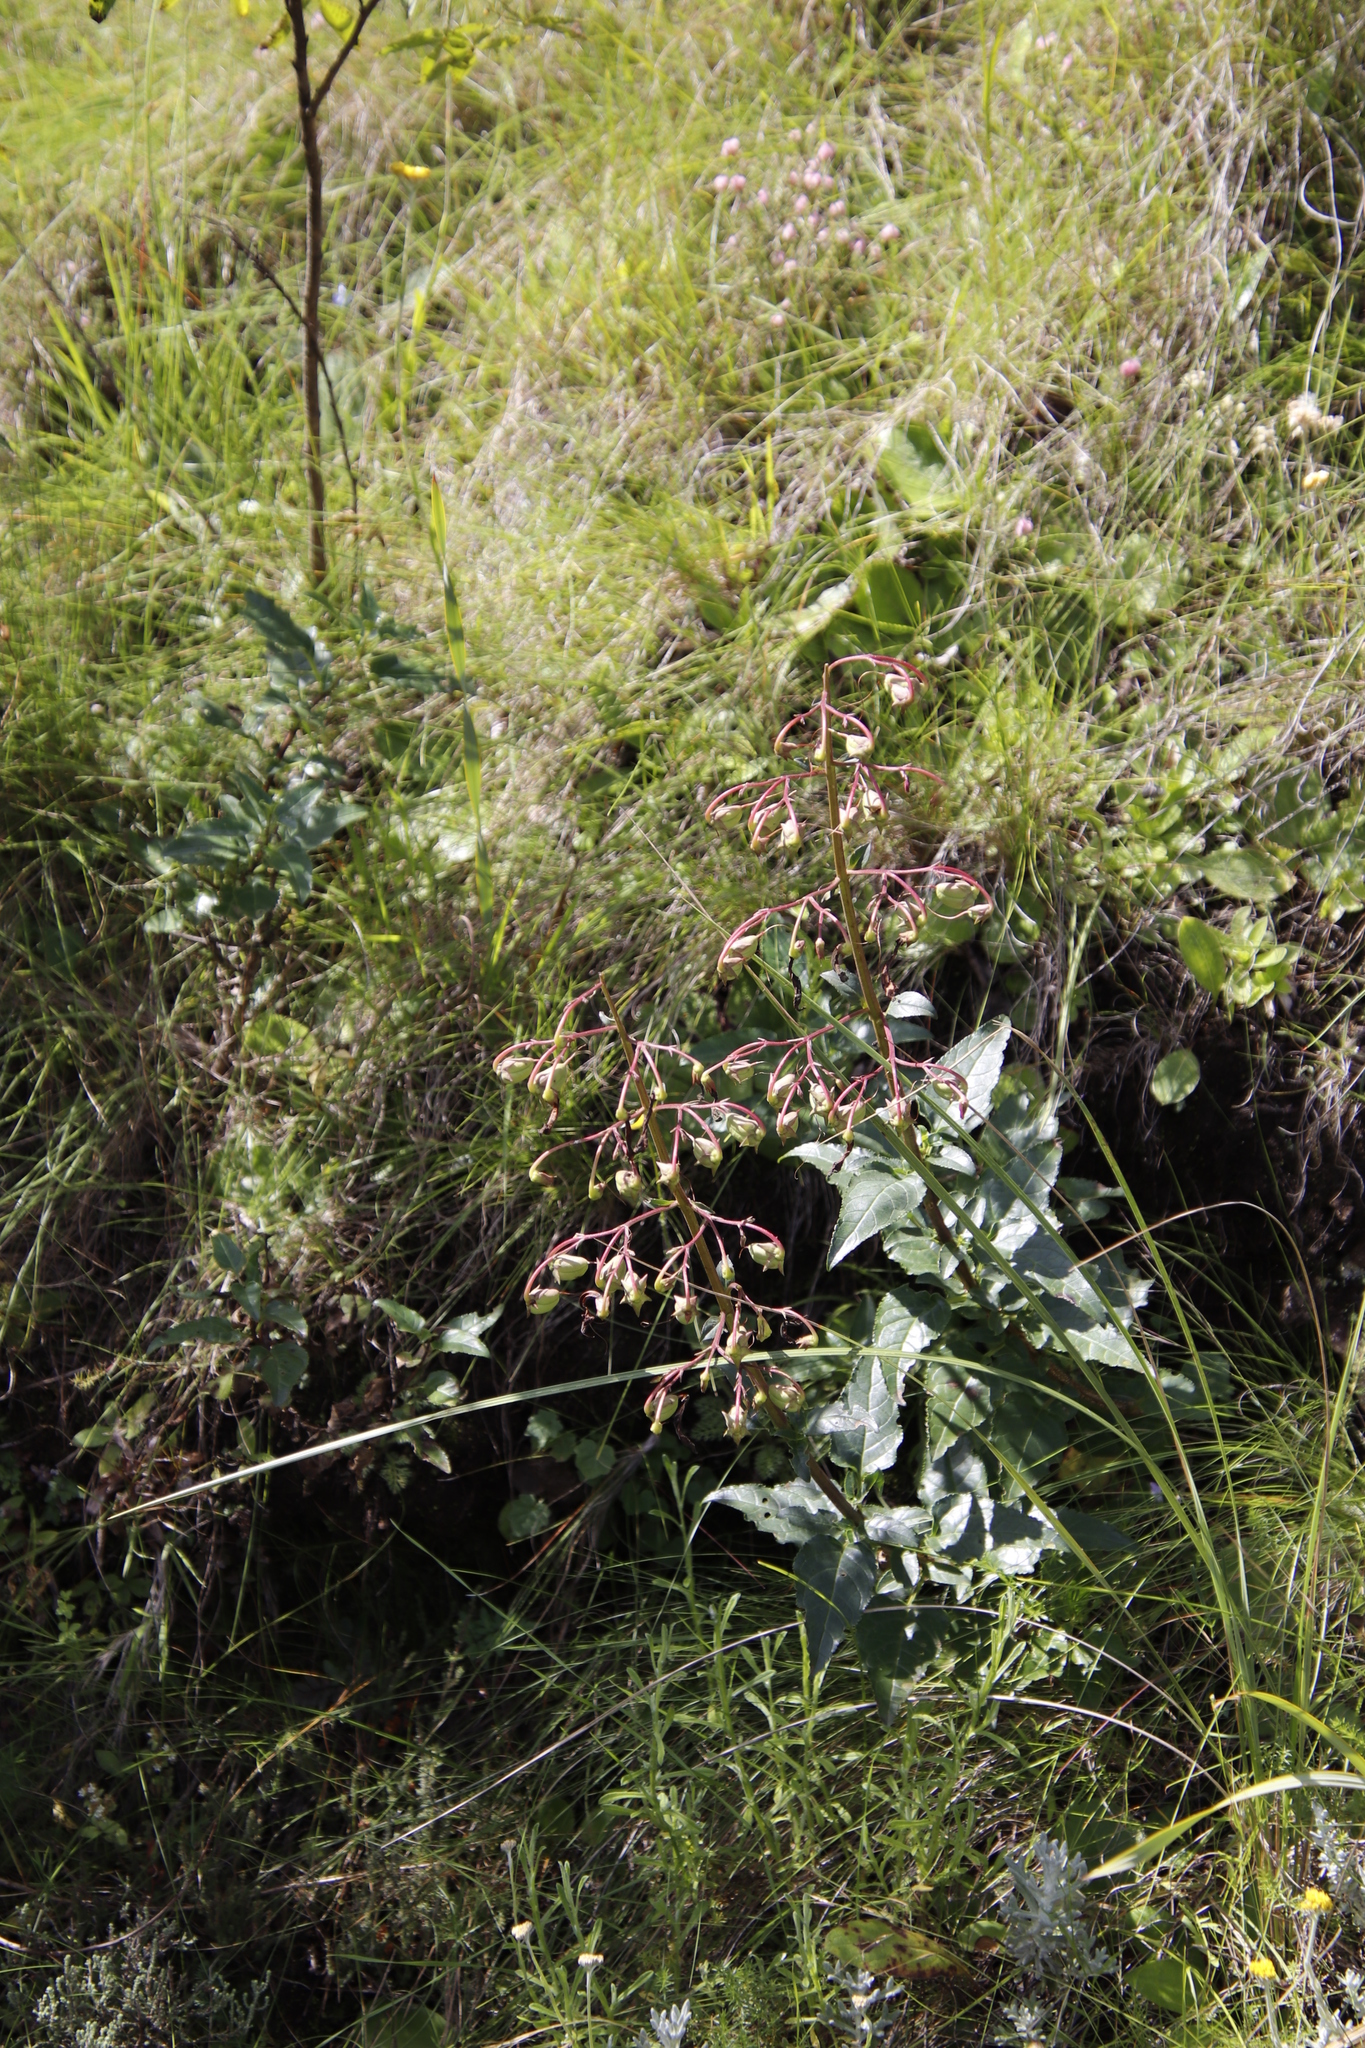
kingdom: Plantae
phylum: Tracheophyta
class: Magnoliopsida
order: Lamiales
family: Scrophulariaceae
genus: Phygelius
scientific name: Phygelius capensis
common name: Cape figwort
